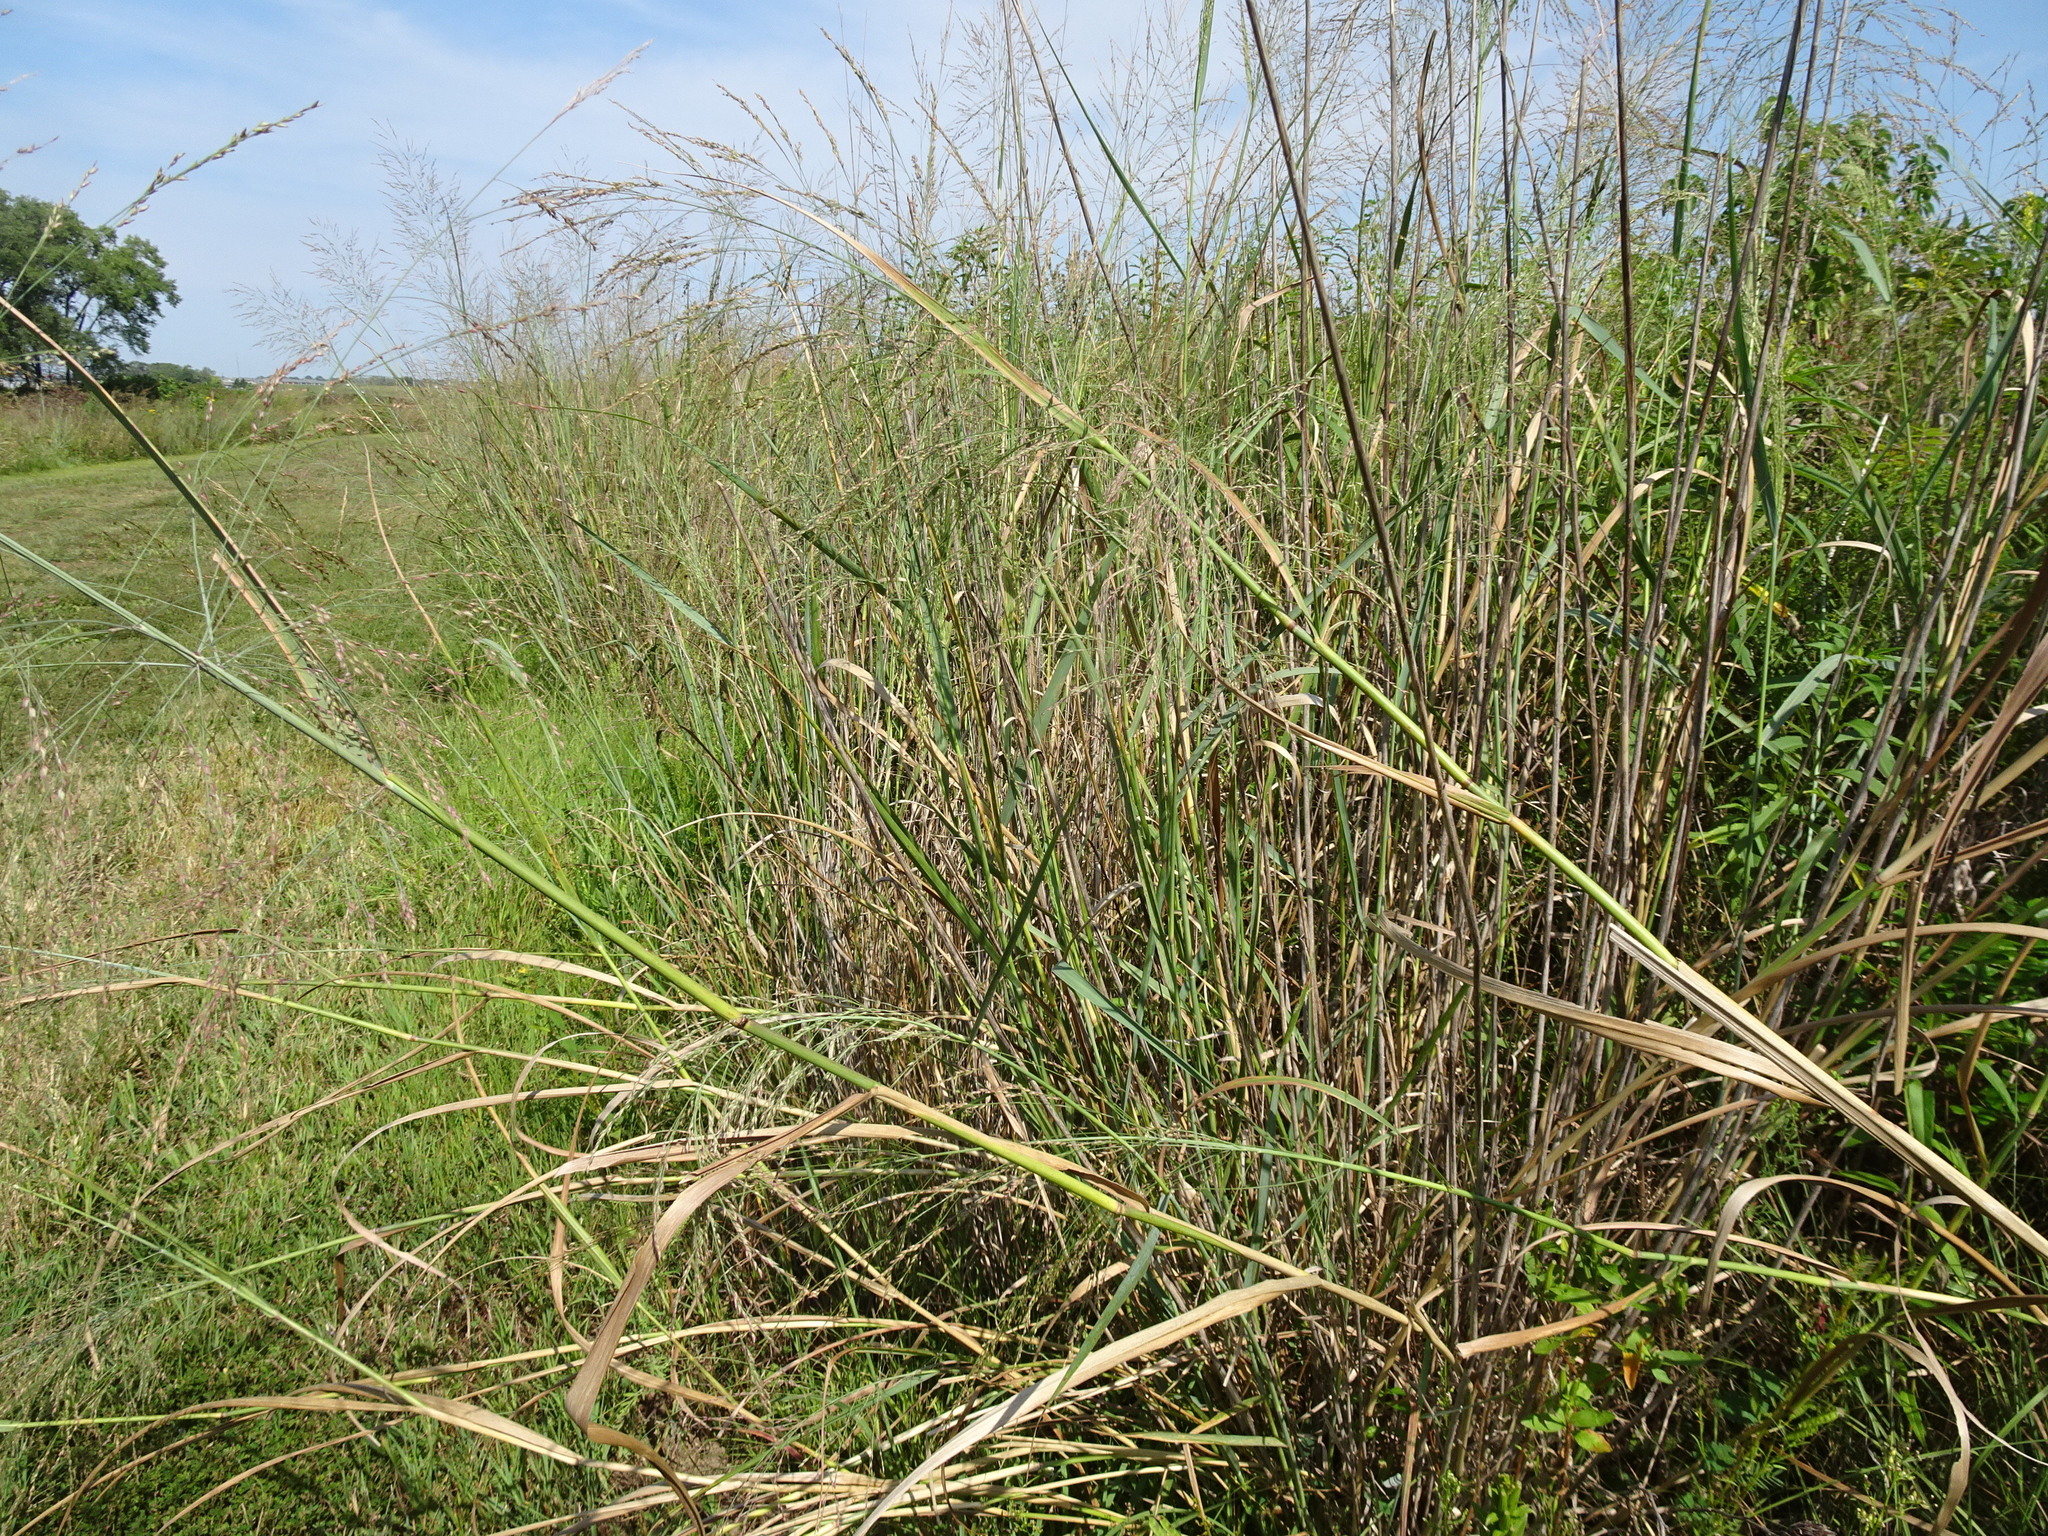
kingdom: Plantae
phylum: Tracheophyta
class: Liliopsida
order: Poales
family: Poaceae
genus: Panicum
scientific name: Panicum virgatum
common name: Switchgrass
